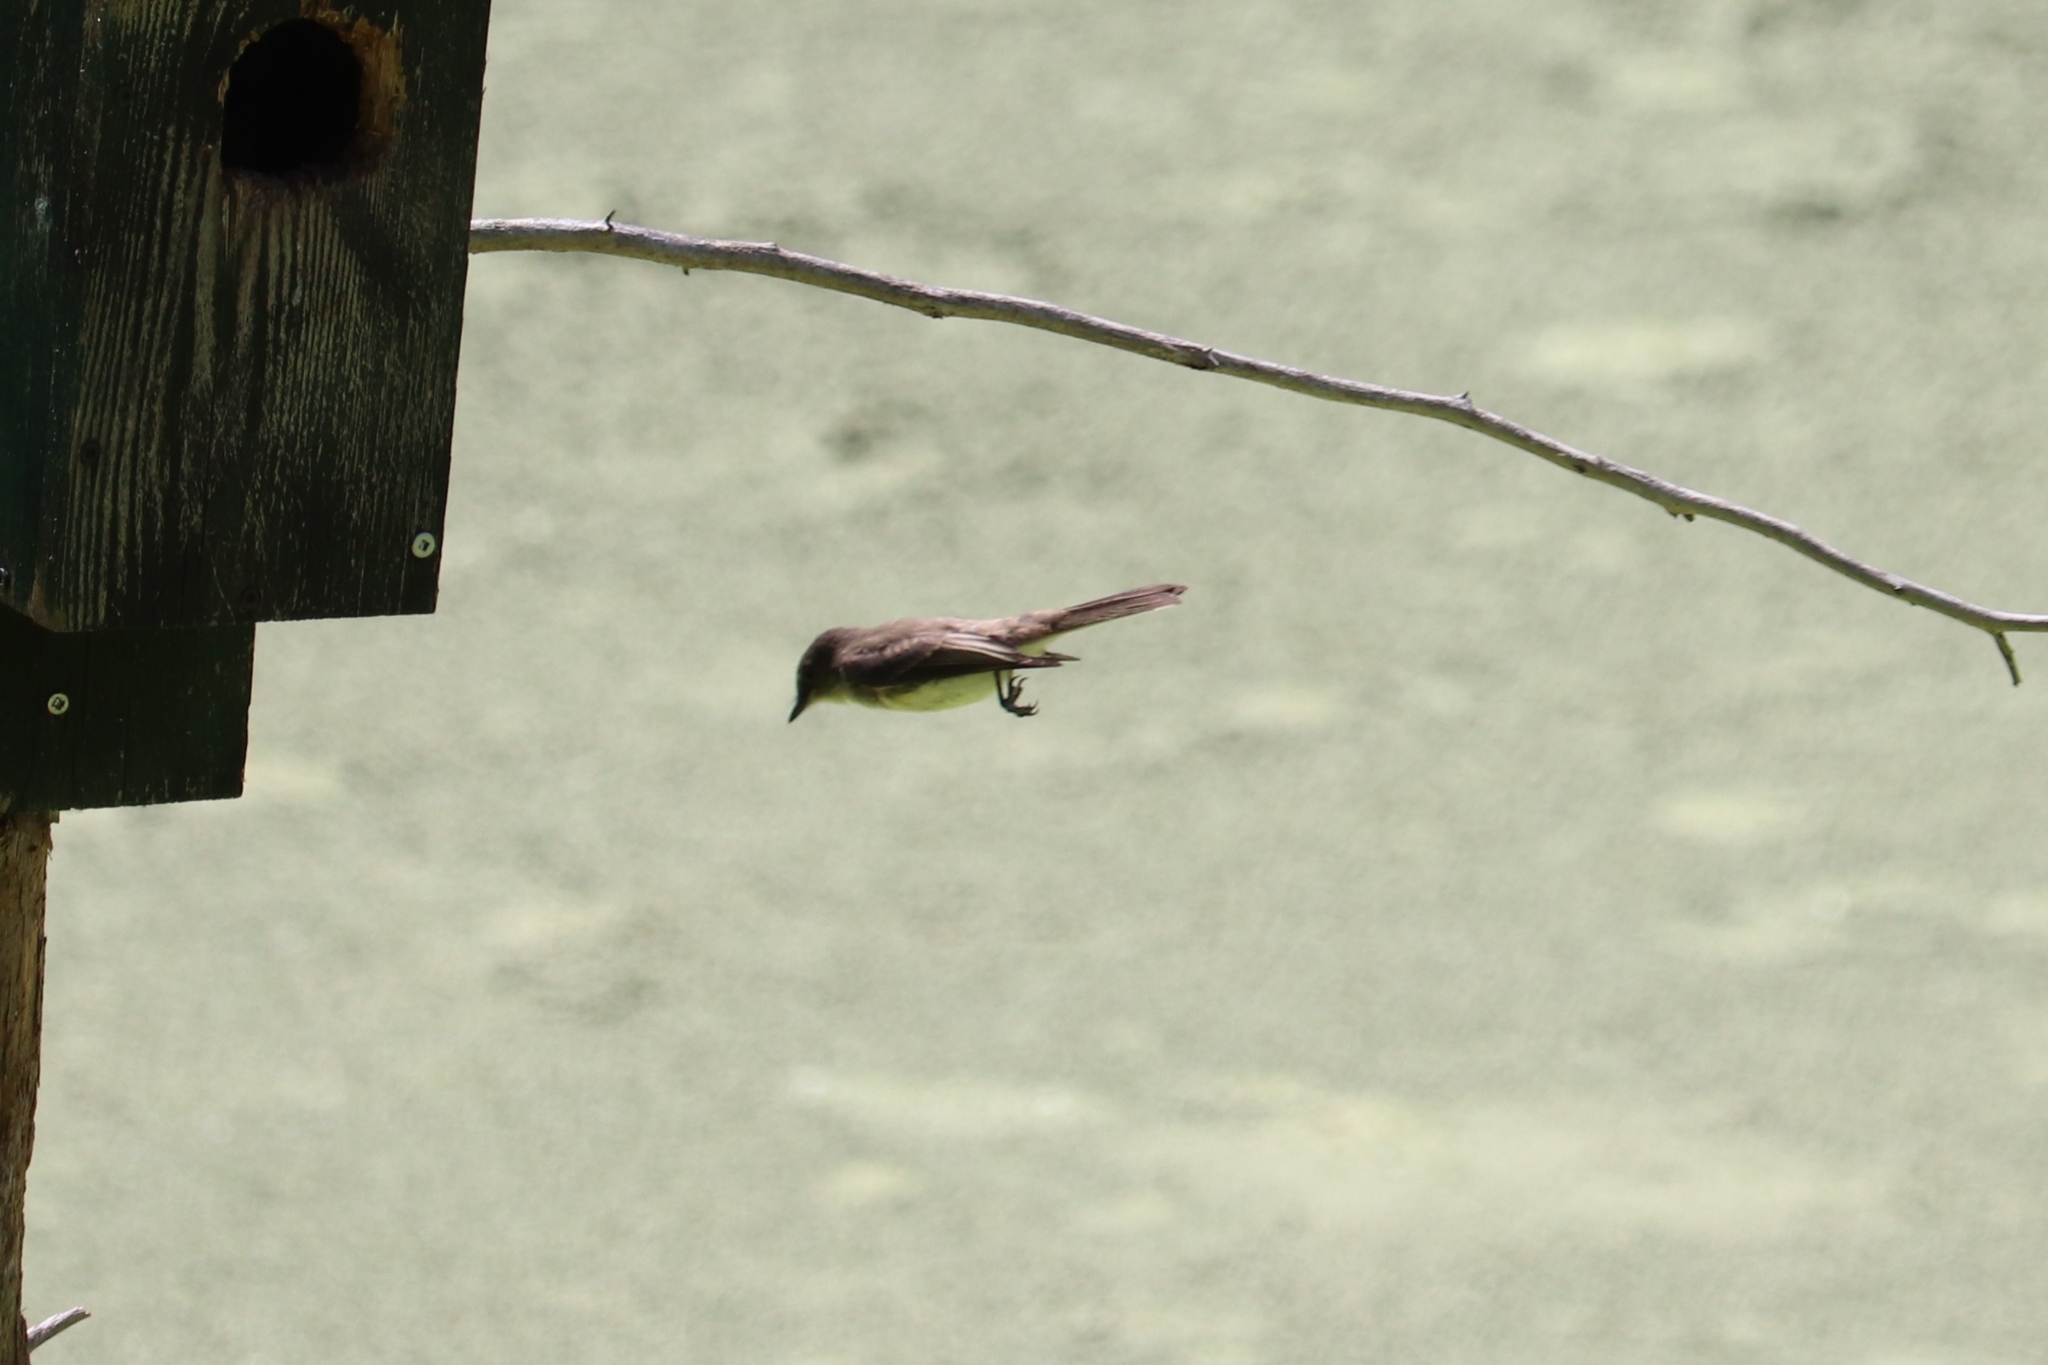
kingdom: Animalia
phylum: Chordata
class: Aves
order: Passeriformes
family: Tyrannidae
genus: Sayornis
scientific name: Sayornis phoebe
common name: Eastern phoebe
